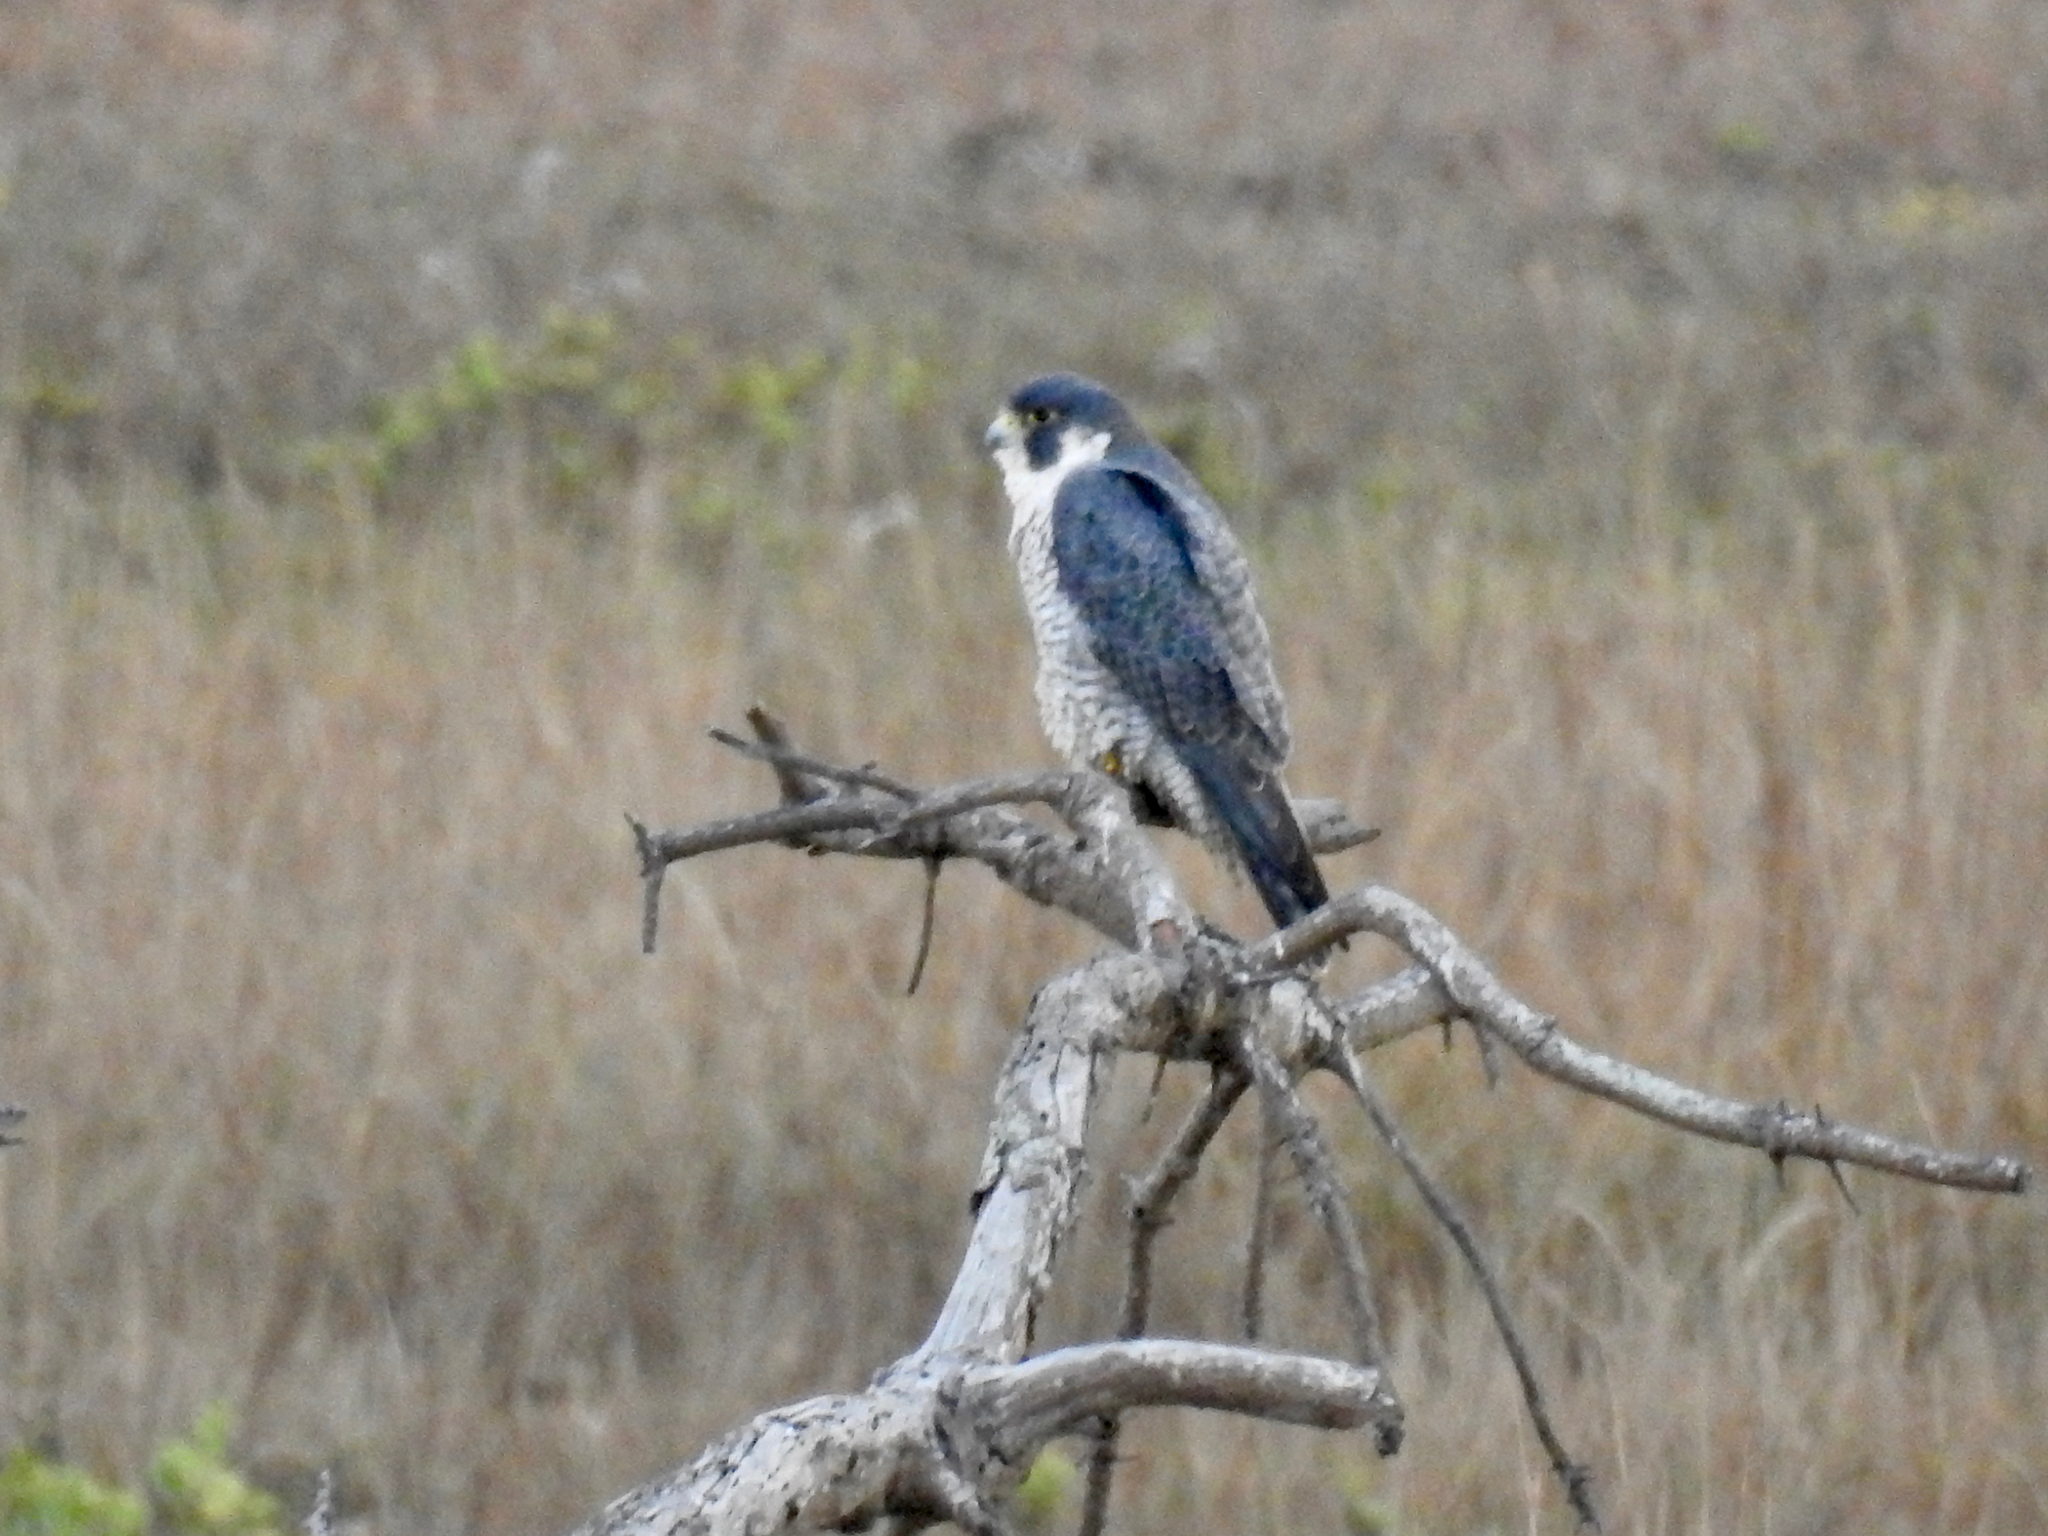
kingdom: Animalia
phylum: Chordata
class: Aves
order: Falconiformes
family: Falconidae
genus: Falco
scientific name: Falco peregrinus
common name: Peregrine falcon
